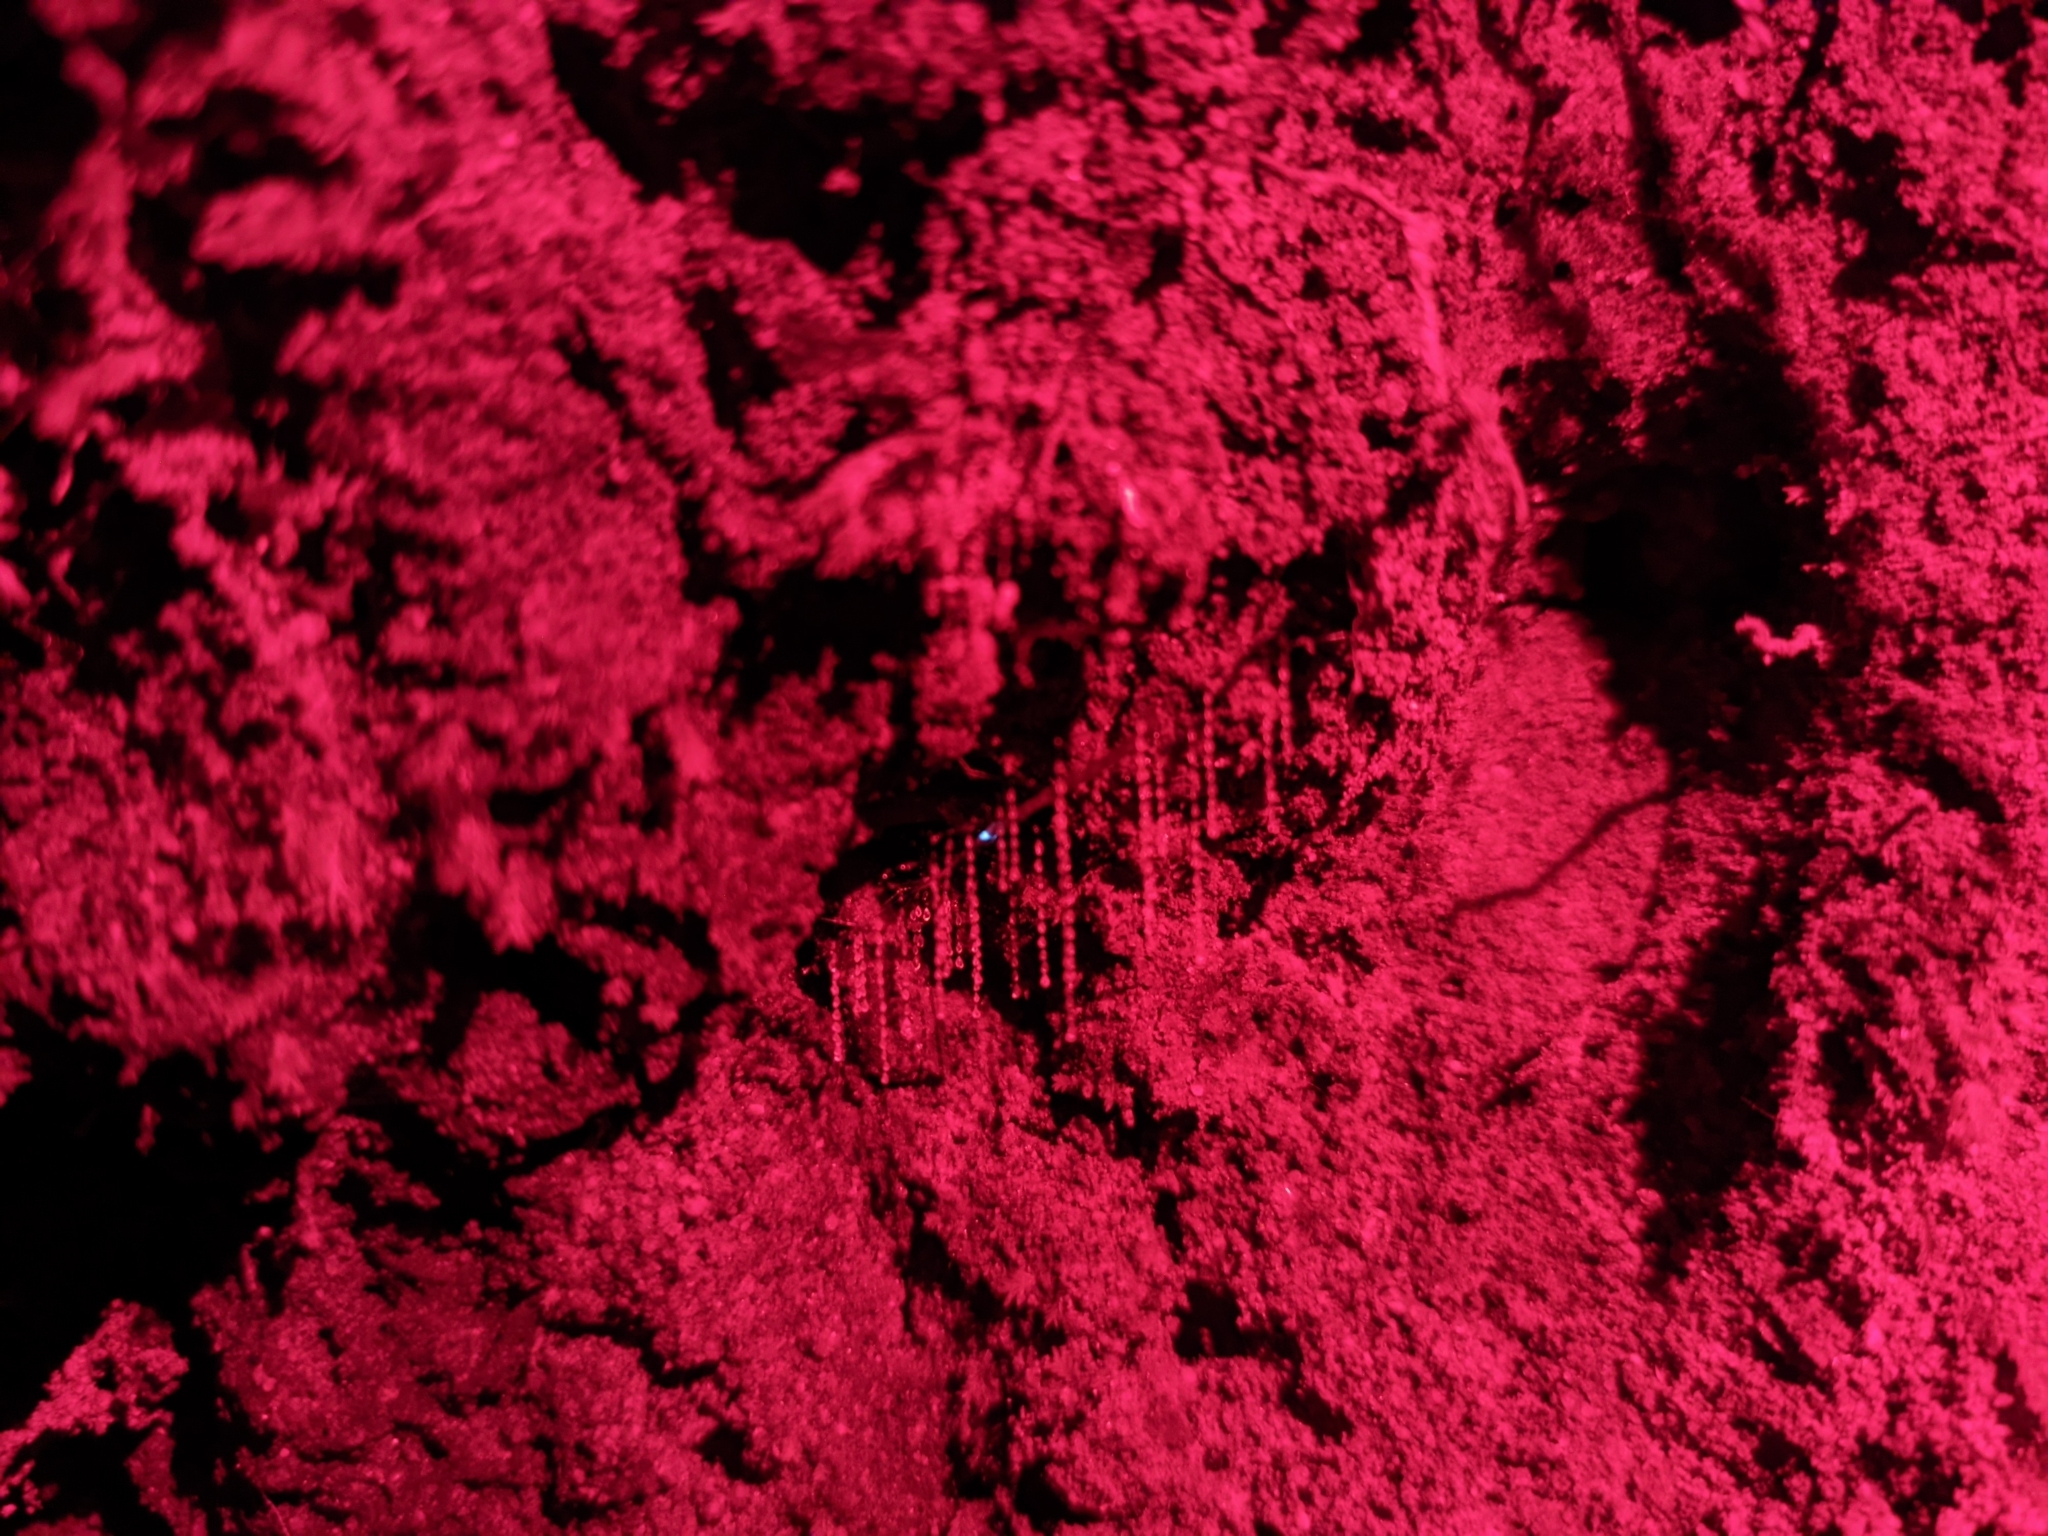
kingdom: Animalia
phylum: Arthropoda
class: Insecta
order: Diptera
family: Keroplatidae
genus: Arachnocampa
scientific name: Arachnocampa luminosa
